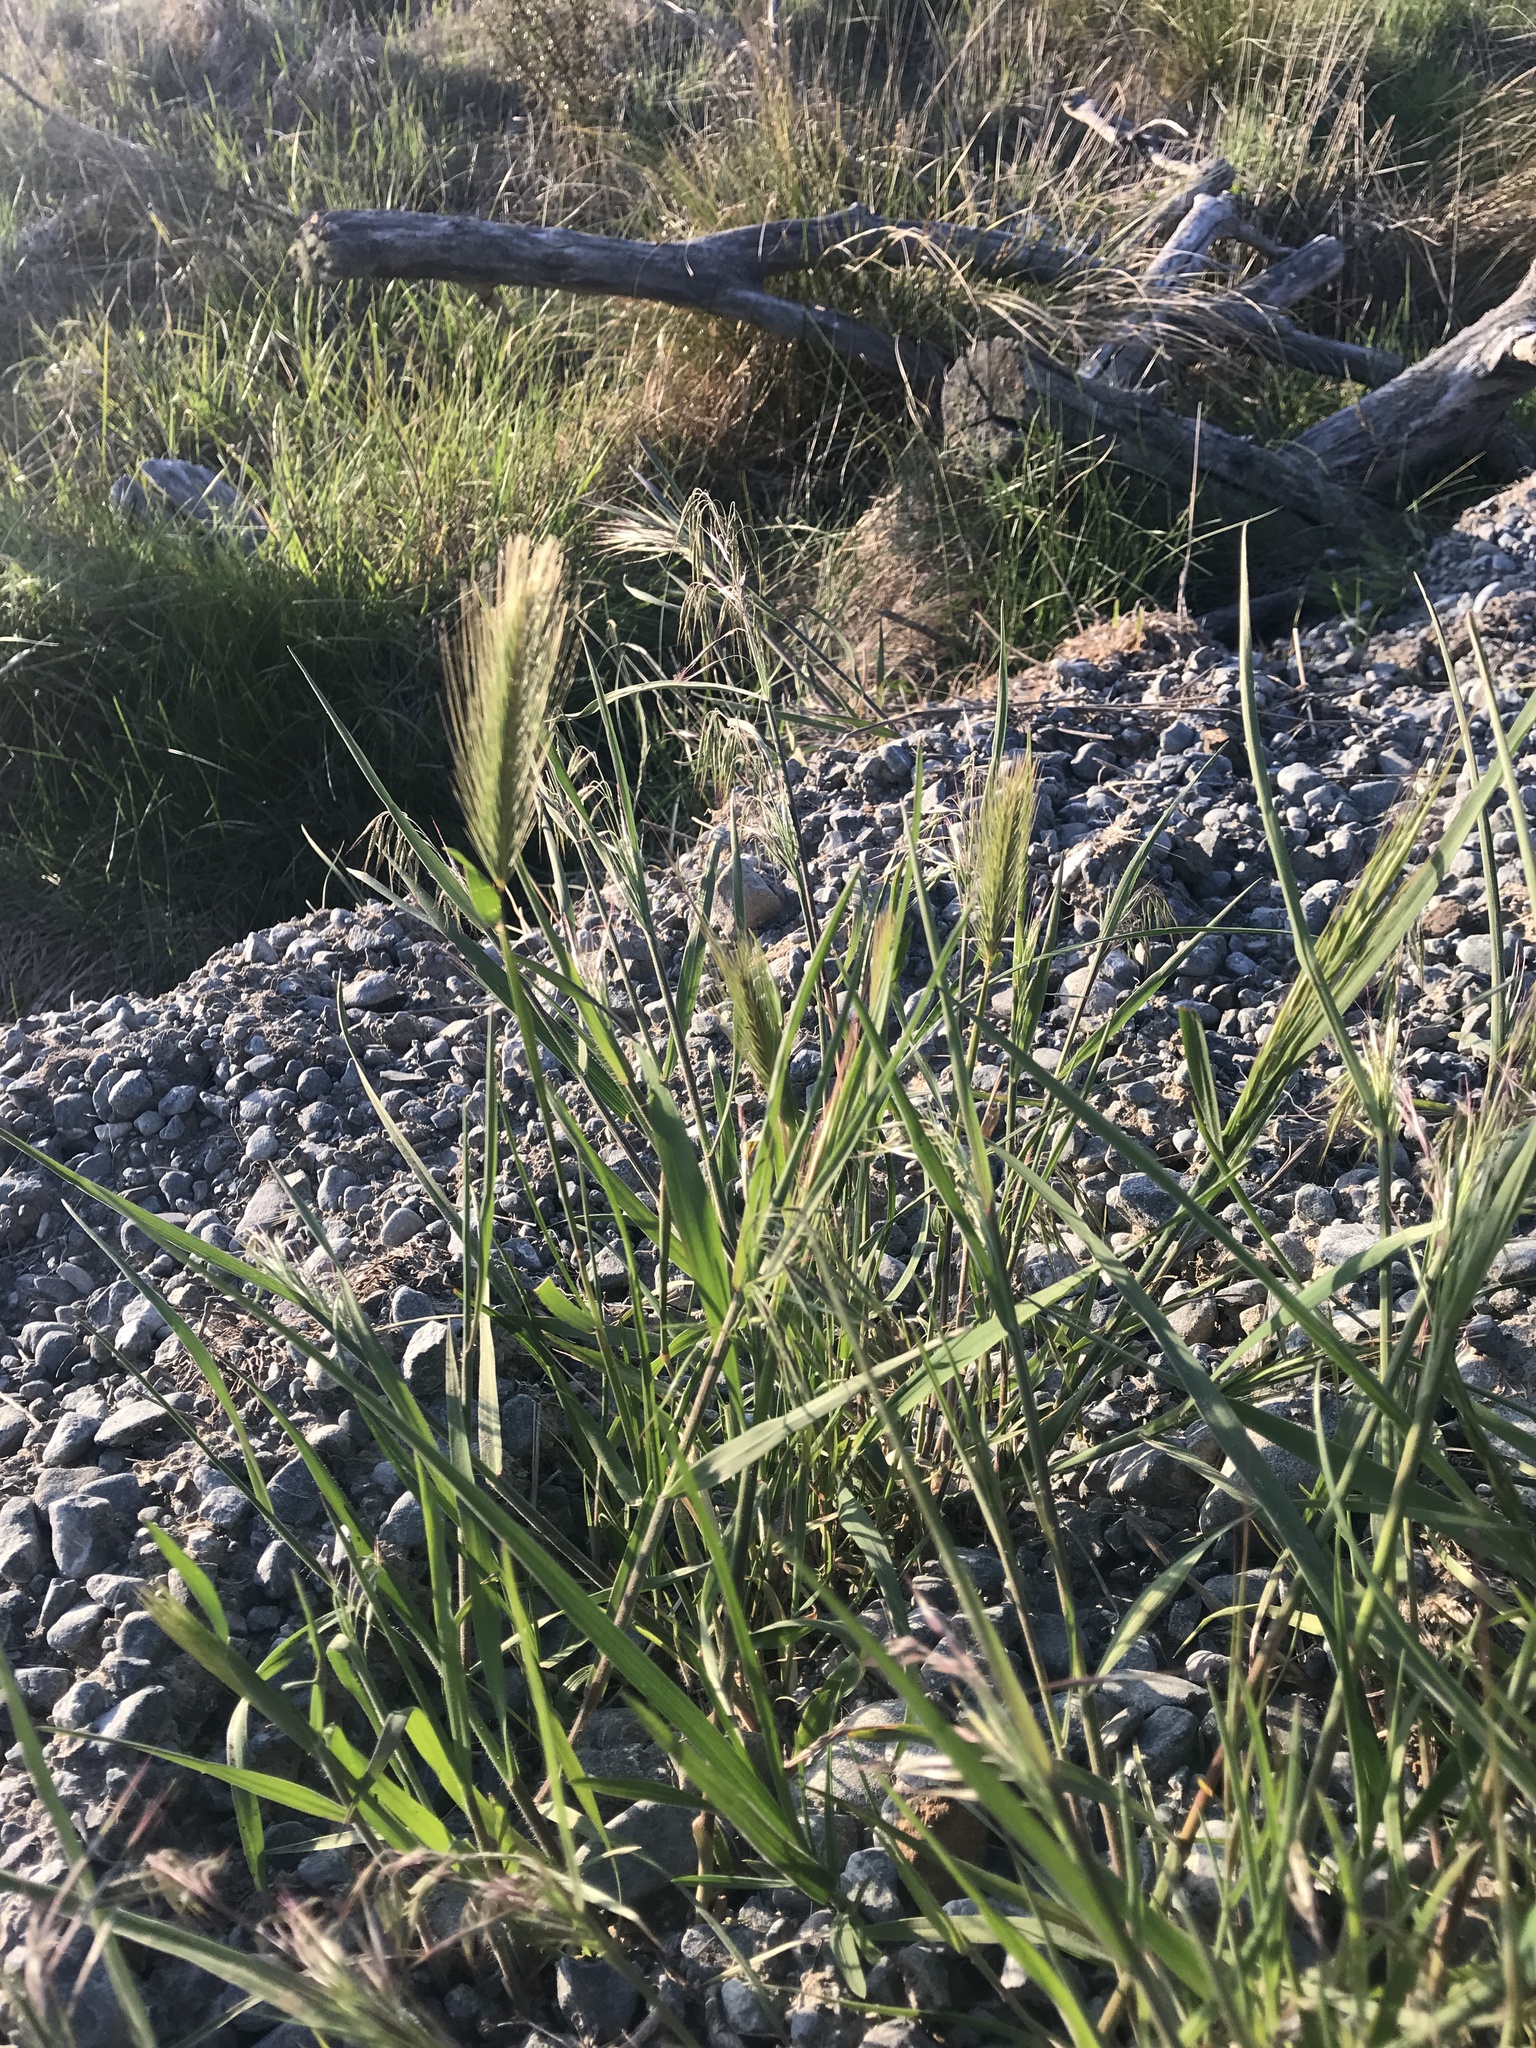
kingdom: Plantae
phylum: Tracheophyta
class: Liliopsida
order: Poales
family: Poaceae
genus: Hordeum
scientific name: Hordeum murinum
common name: Wall barley
